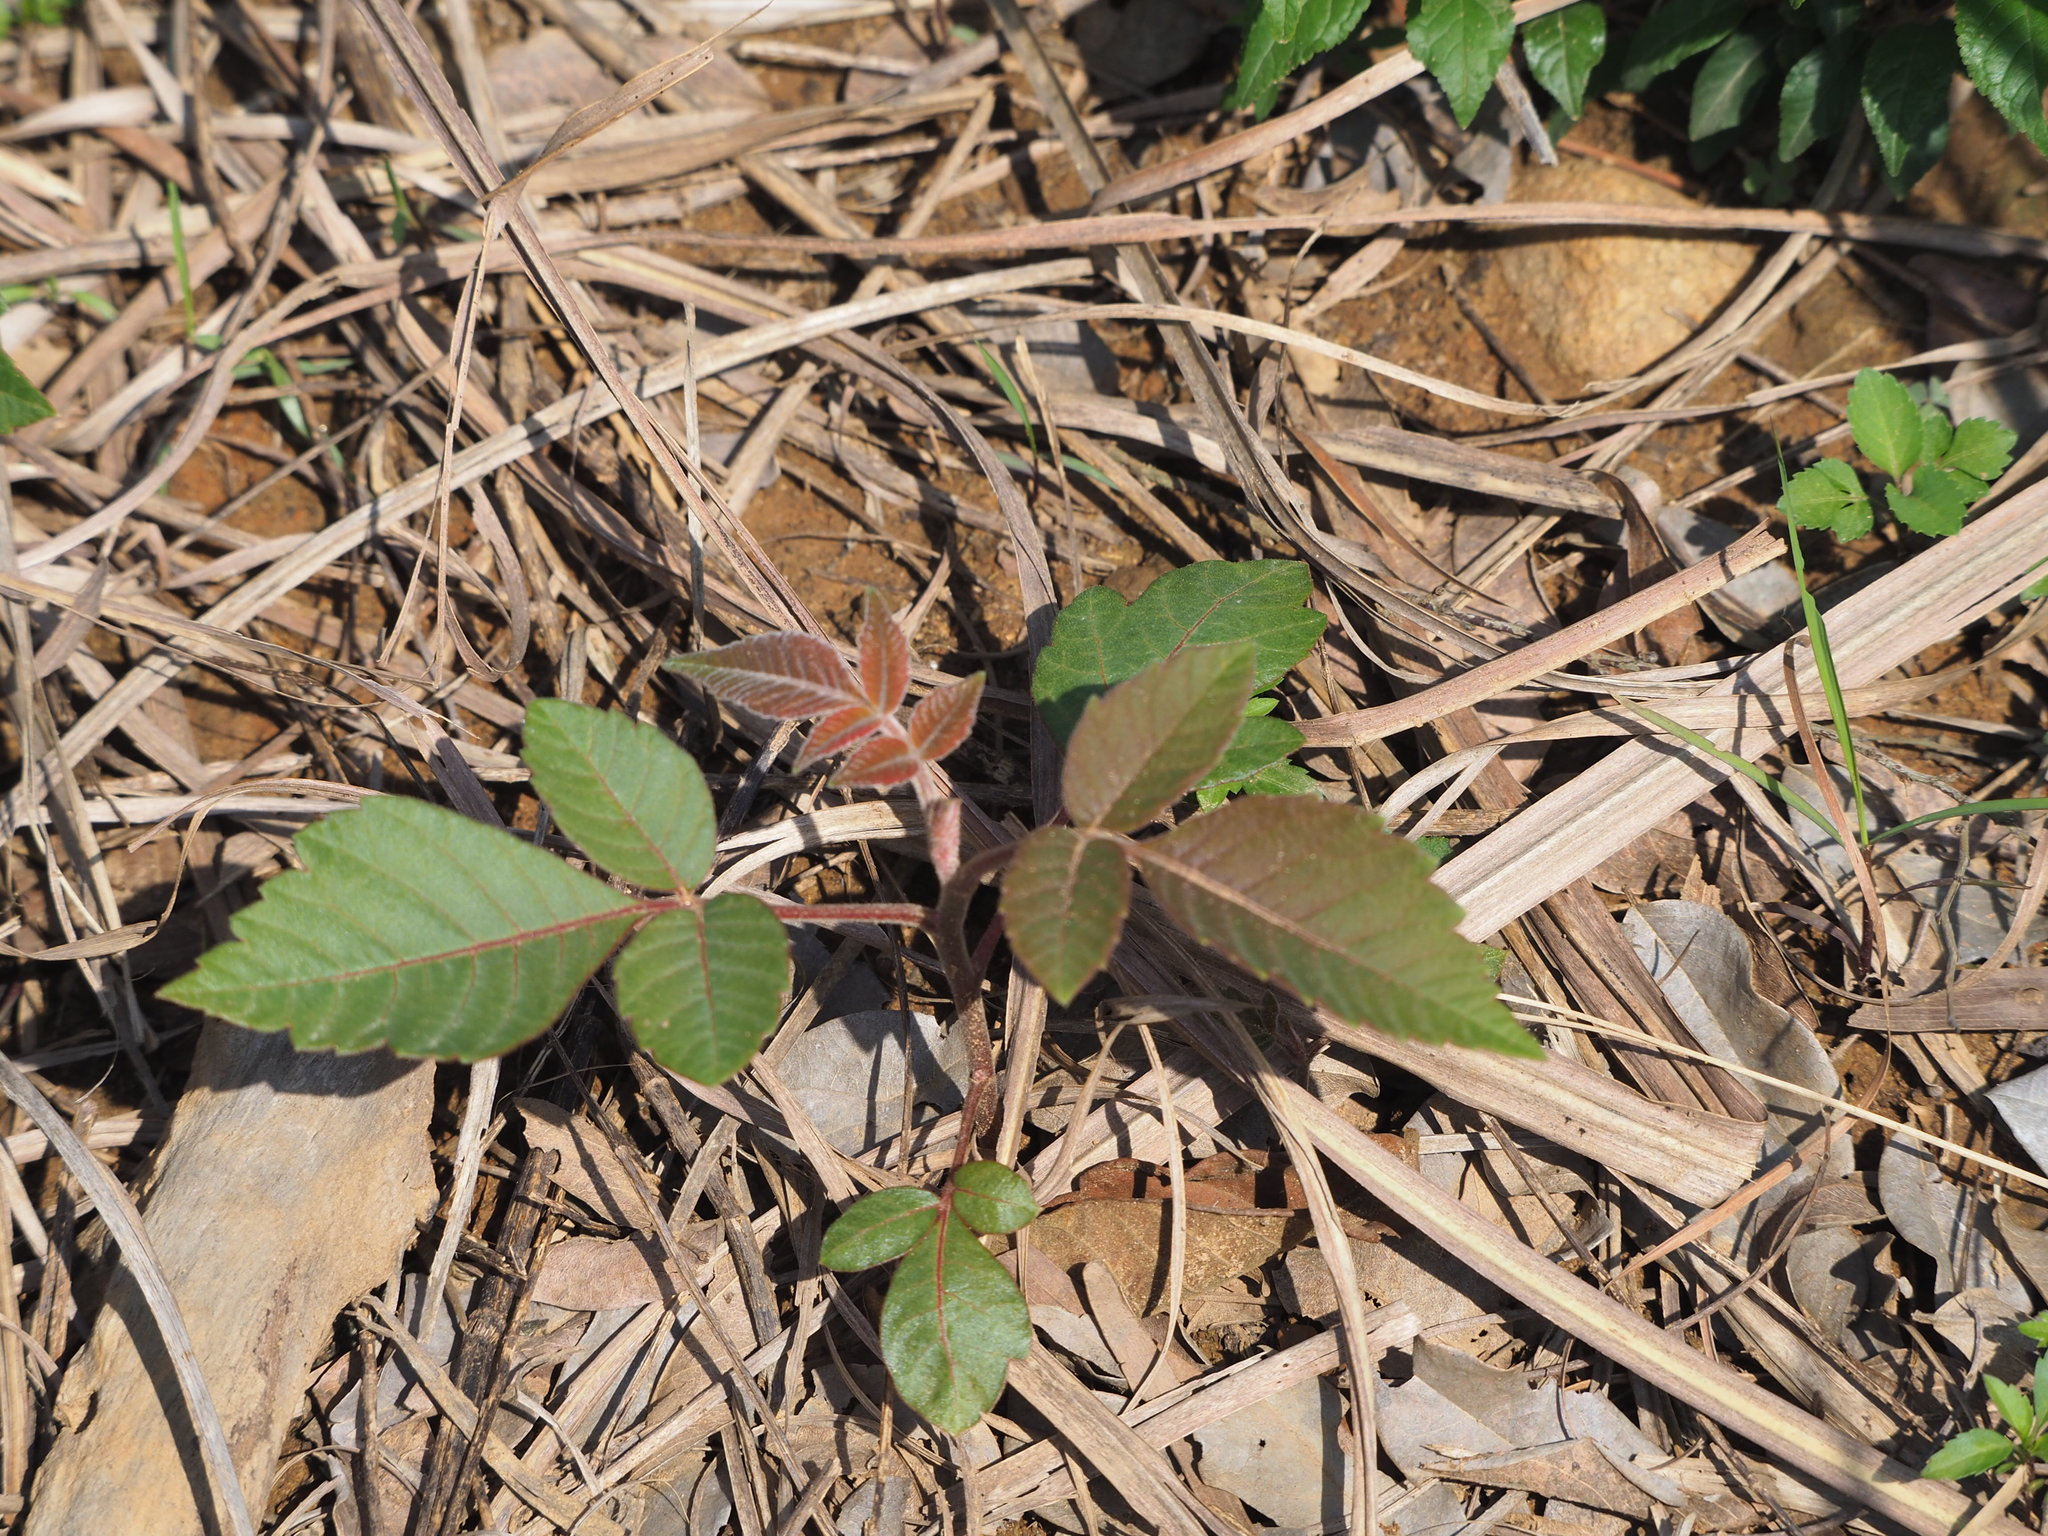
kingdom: Plantae
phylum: Tracheophyta
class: Magnoliopsida
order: Sapindales
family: Anacardiaceae
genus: Rhus
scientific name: Rhus chinensis
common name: Chinese gall
